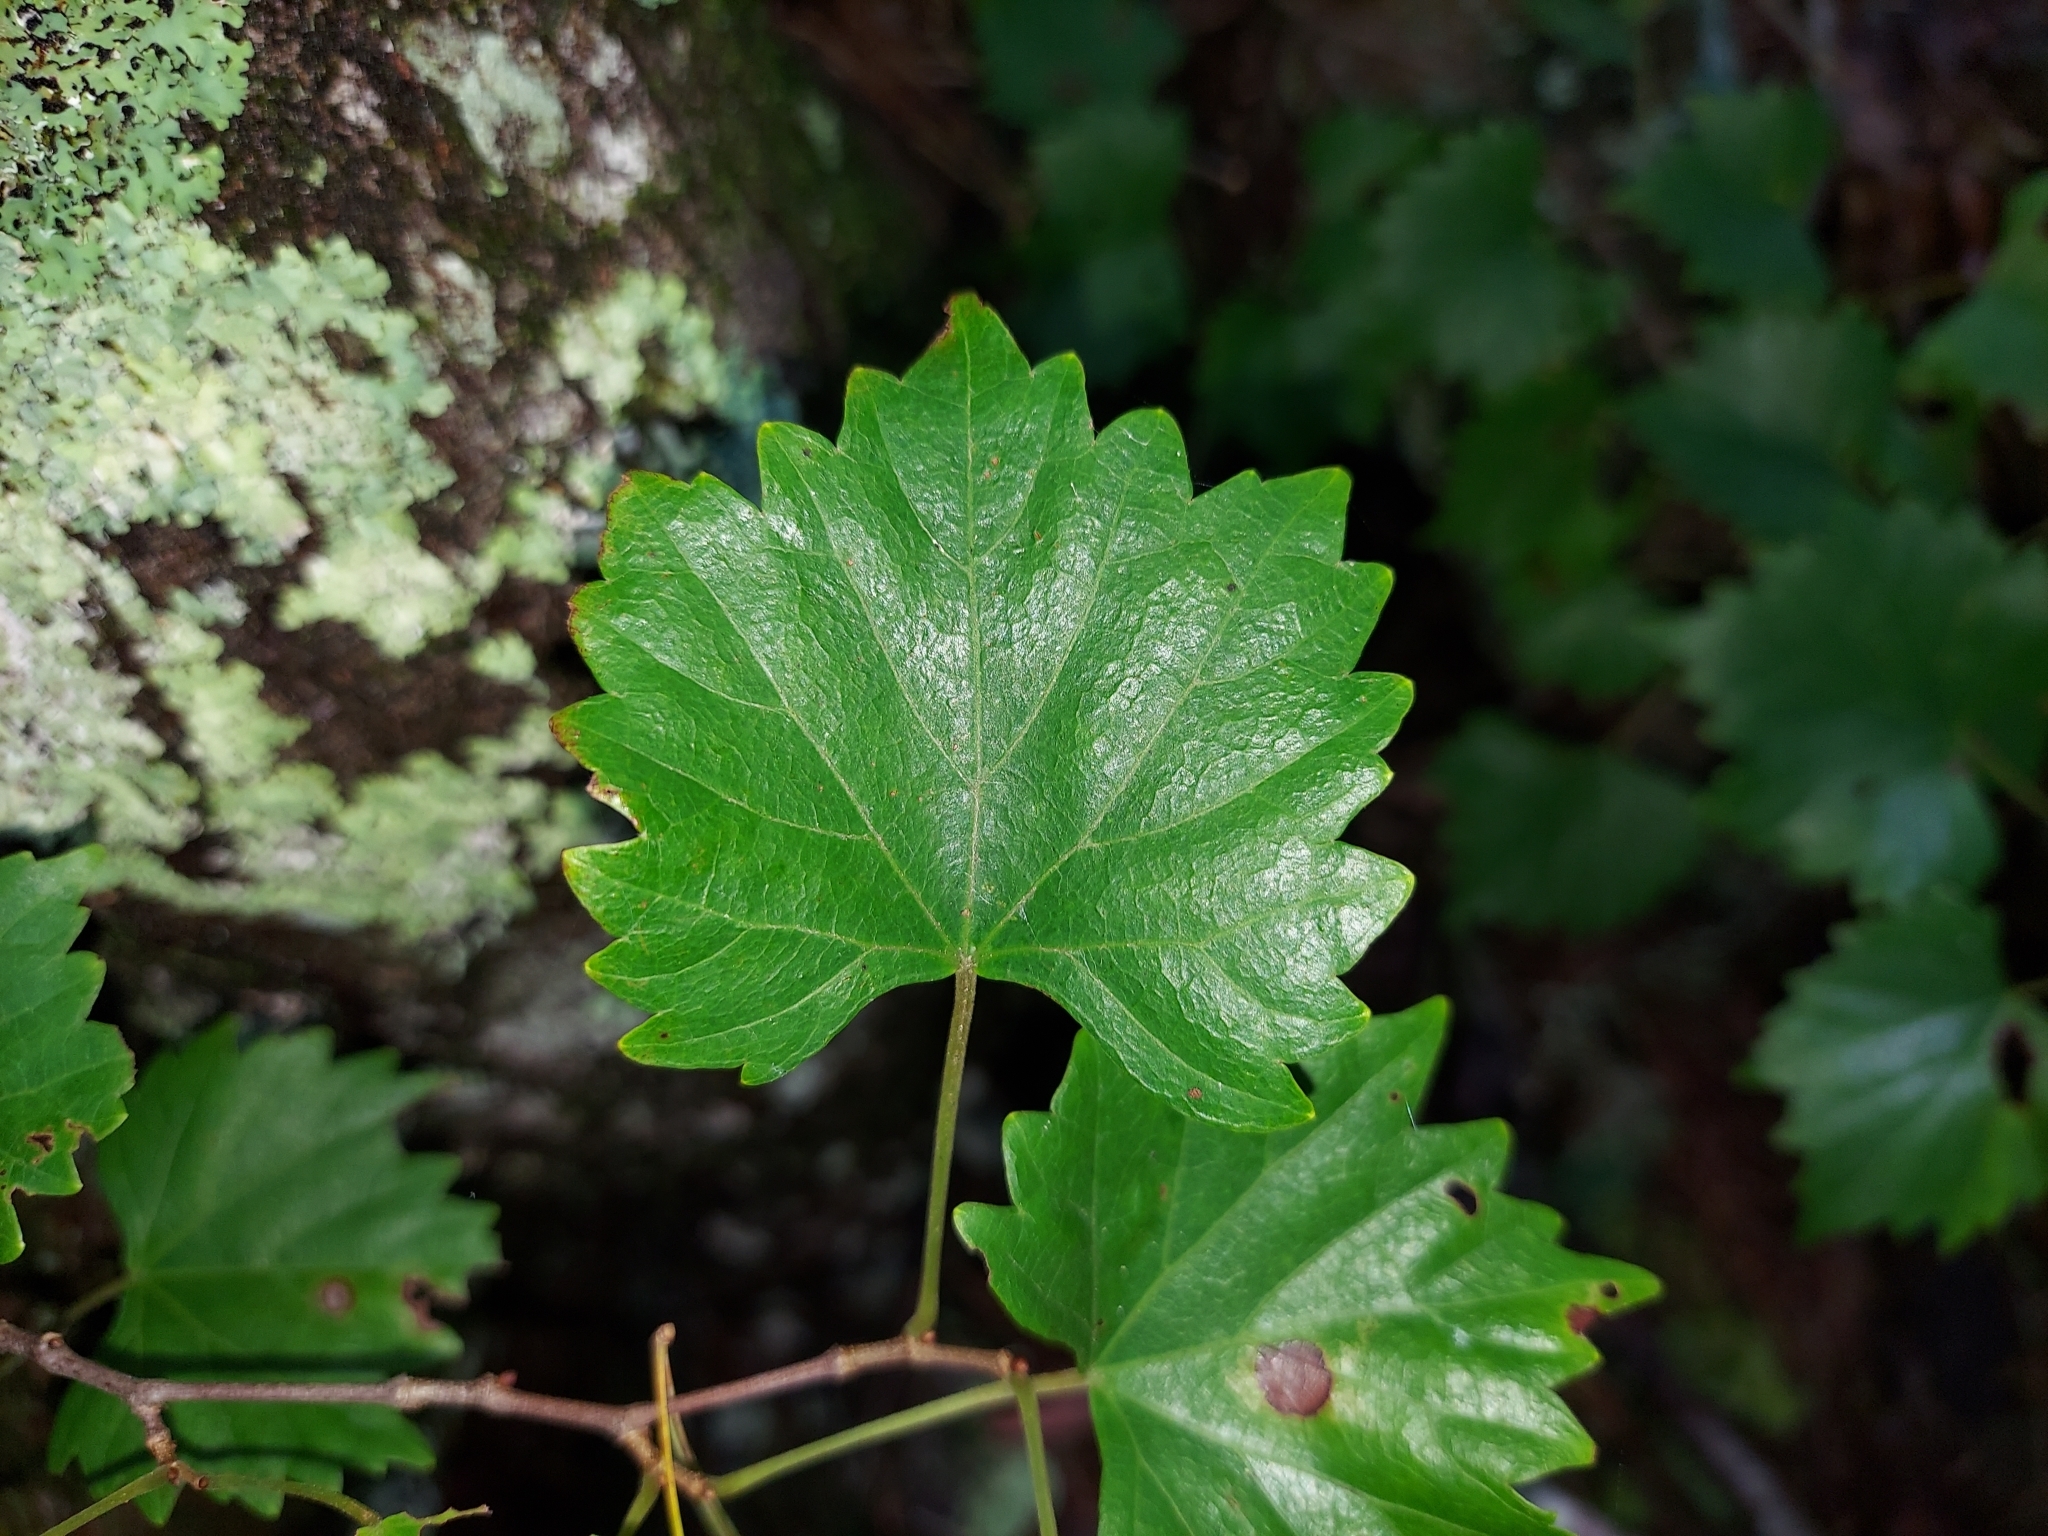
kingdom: Plantae
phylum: Tracheophyta
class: Magnoliopsida
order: Vitales
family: Vitaceae
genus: Vitis
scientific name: Vitis rotundifolia
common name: Muscadine grape
